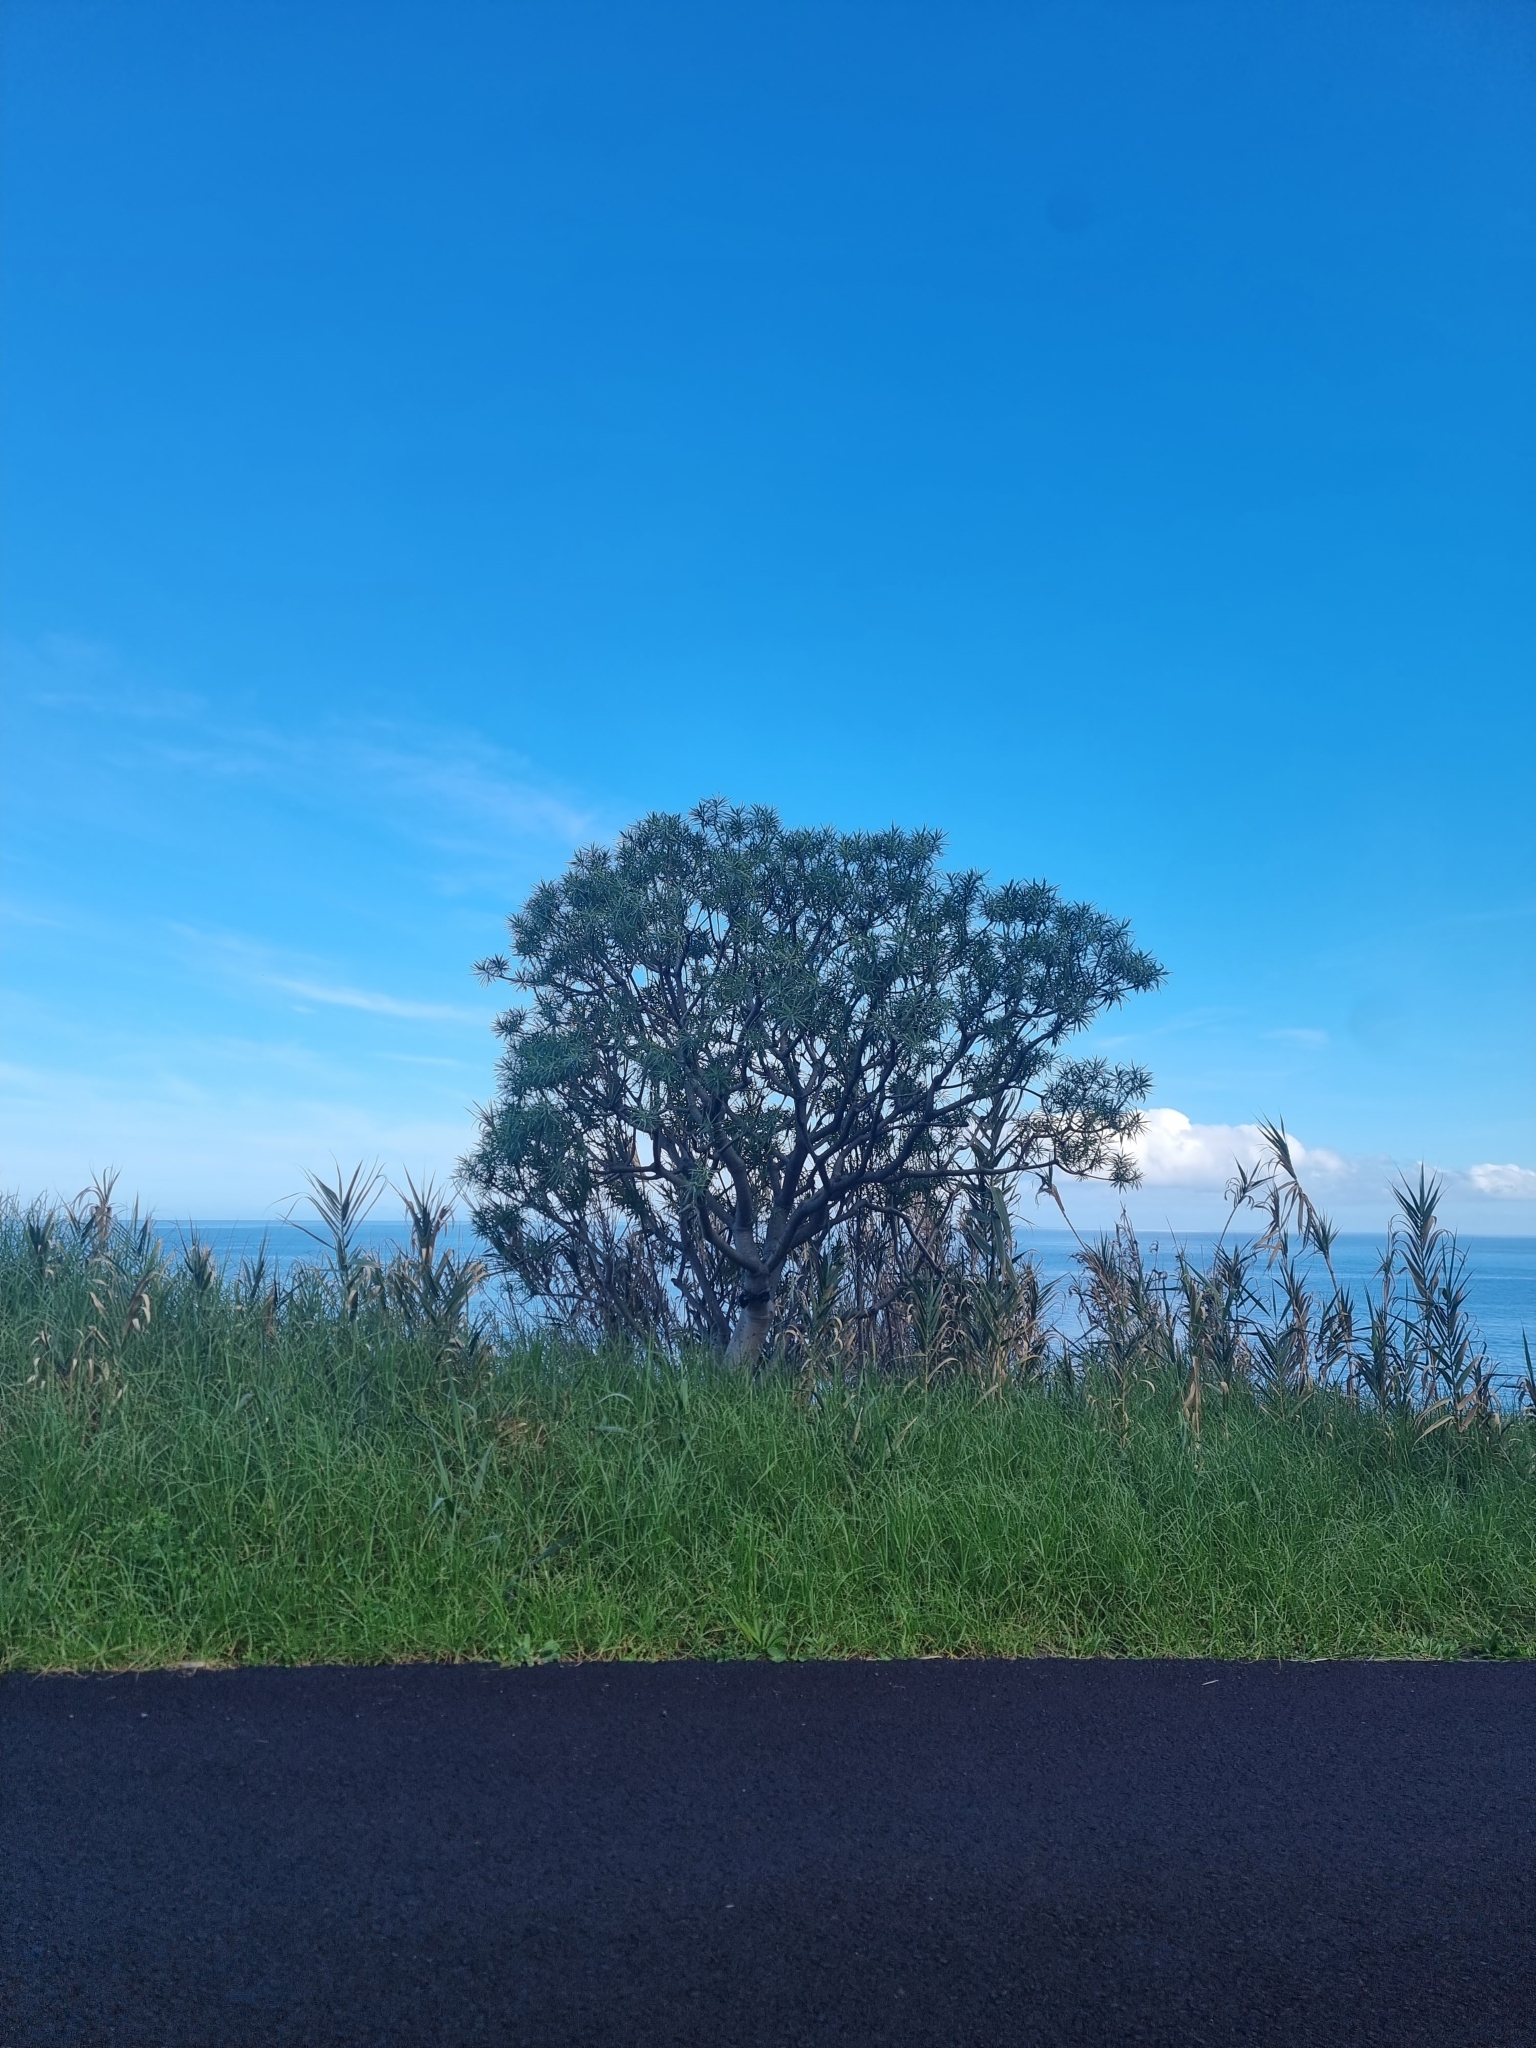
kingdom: Plantae
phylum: Tracheophyta
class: Magnoliopsida
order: Malpighiales
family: Euphorbiaceae
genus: Euphorbia
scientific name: Euphorbia piscatoria
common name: Fish-stunning spurge
